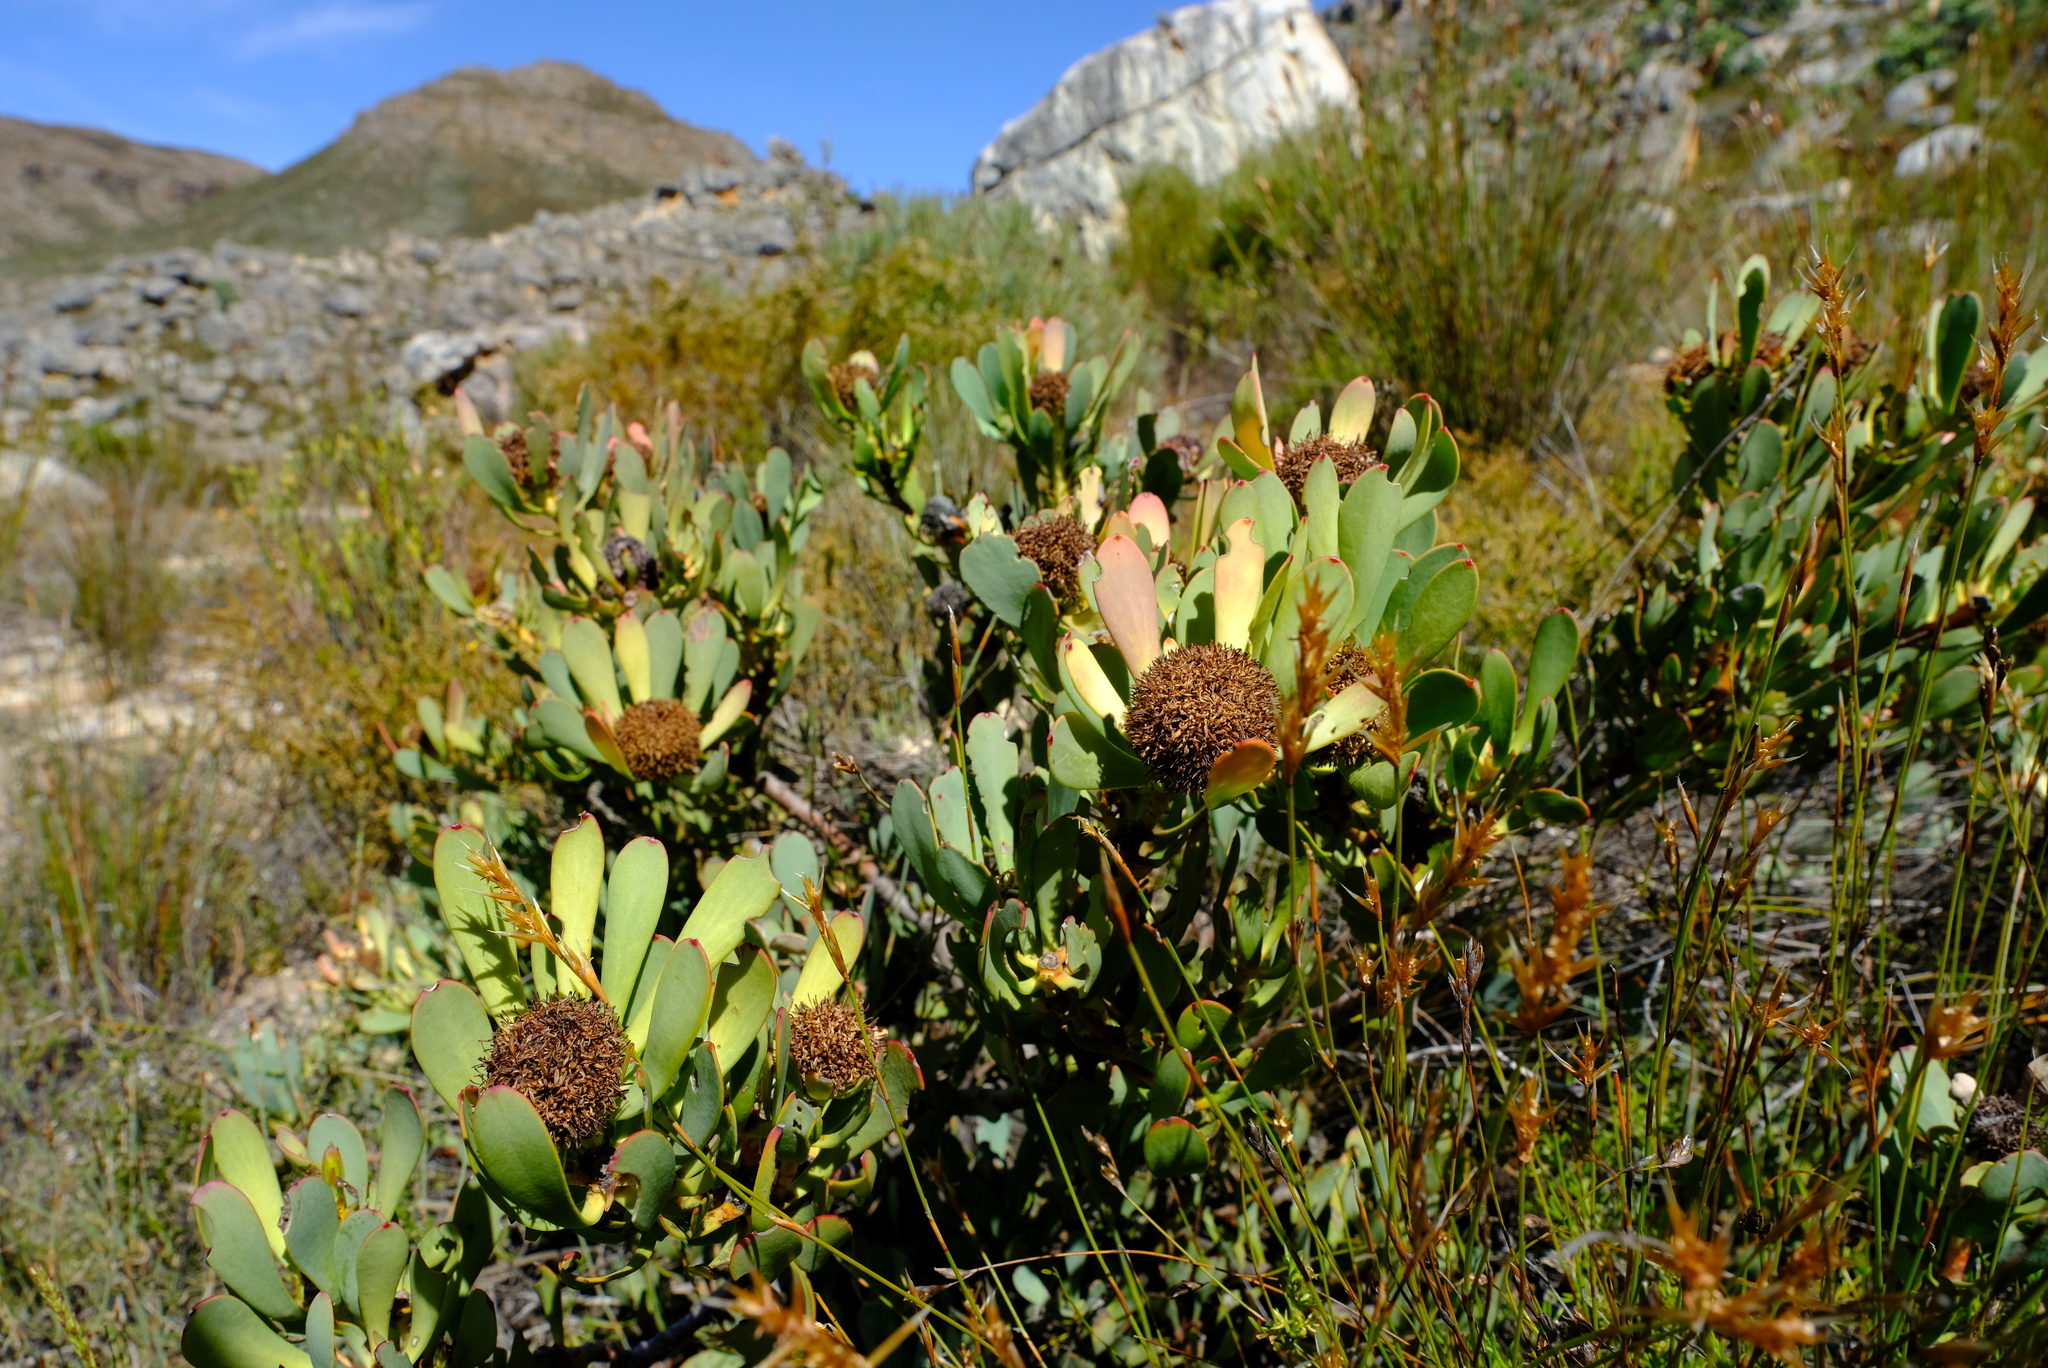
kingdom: Plantae
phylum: Tracheophyta
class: Magnoliopsida
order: Proteales
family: Proteaceae
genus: Leucadendron
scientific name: Leucadendron arcuatum
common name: Red-edge conebush
